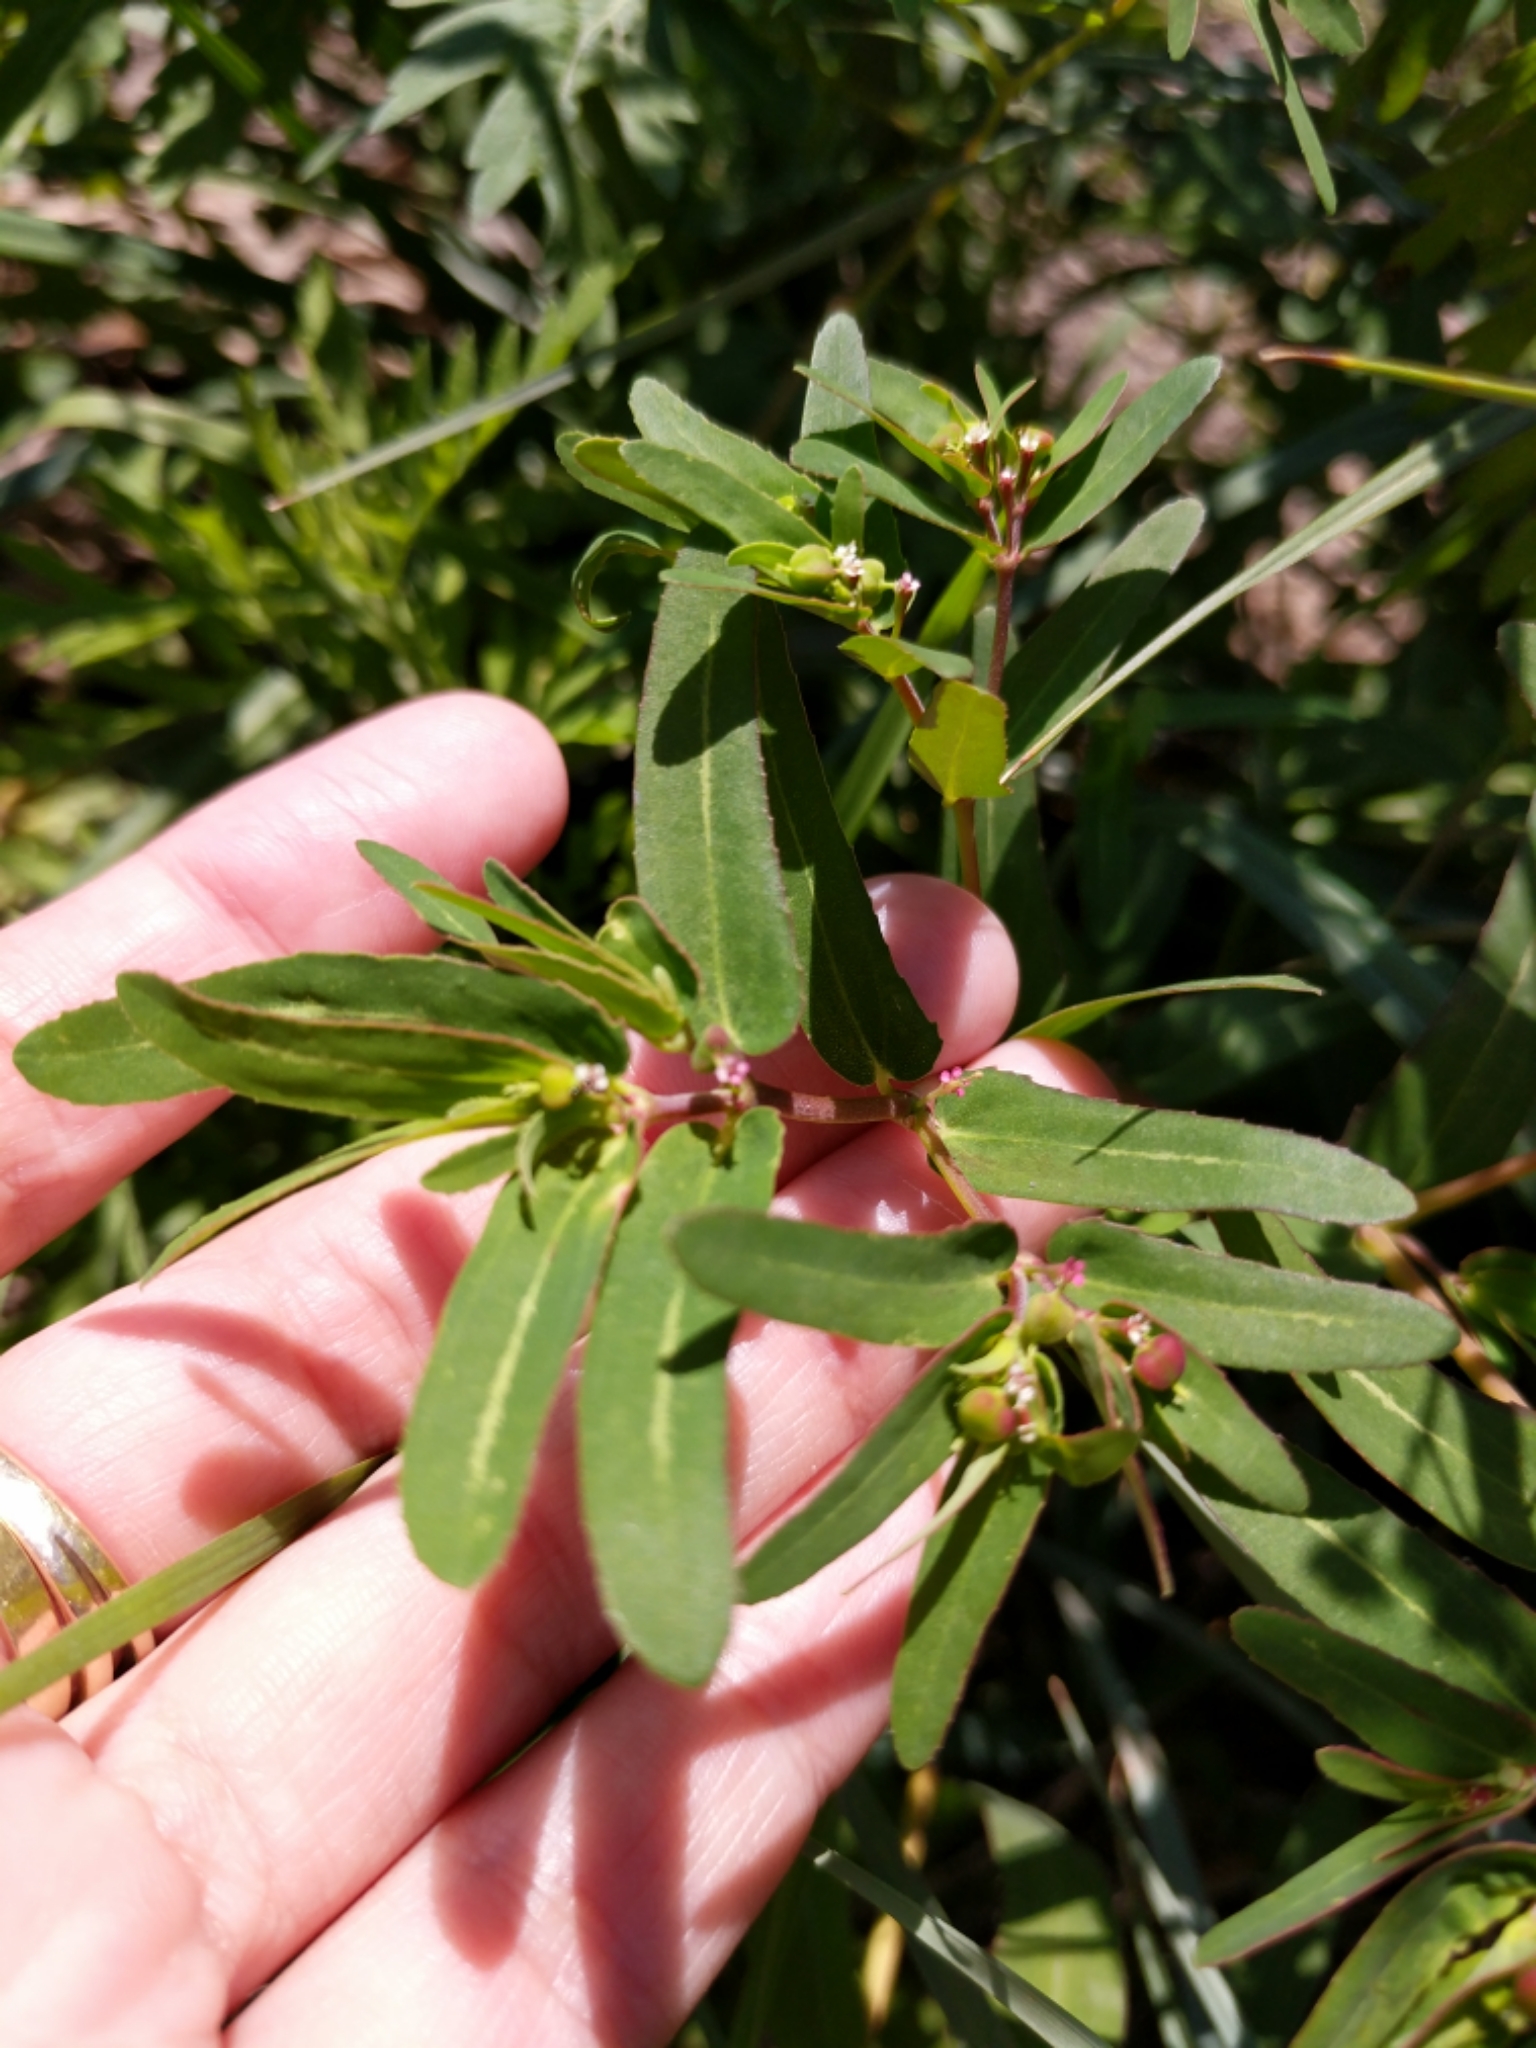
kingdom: Plantae
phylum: Tracheophyta
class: Magnoliopsida
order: Malpighiales
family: Euphorbiaceae
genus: Euphorbia
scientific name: Euphorbia nutans
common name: Eyebane
